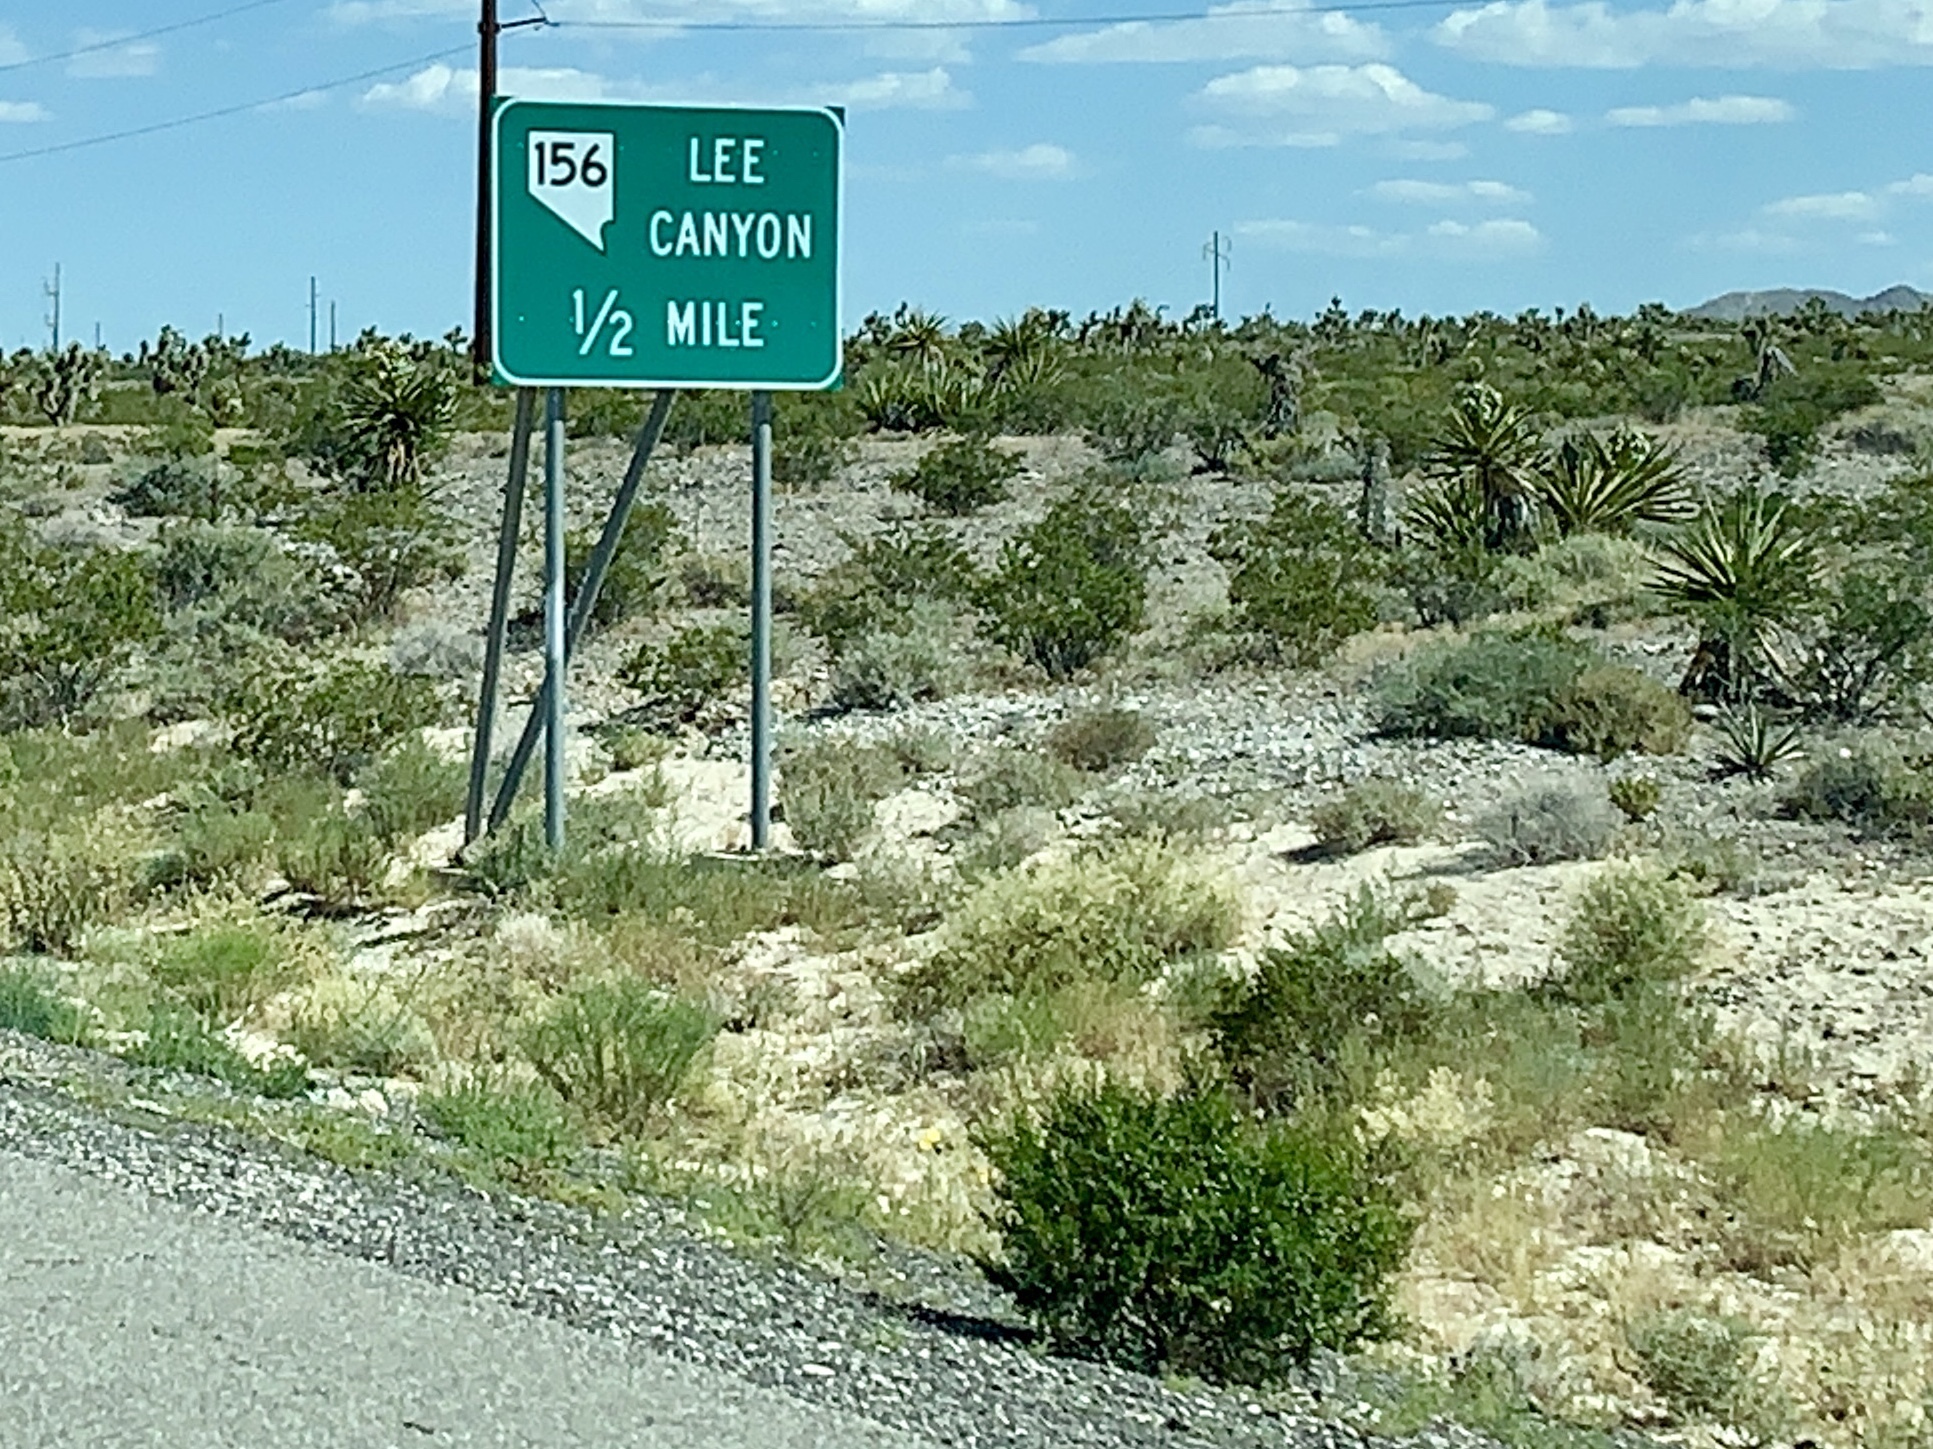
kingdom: Plantae
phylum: Tracheophyta
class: Magnoliopsida
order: Zygophyllales
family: Zygophyllaceae
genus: Larrea
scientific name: Larrea tridentata
